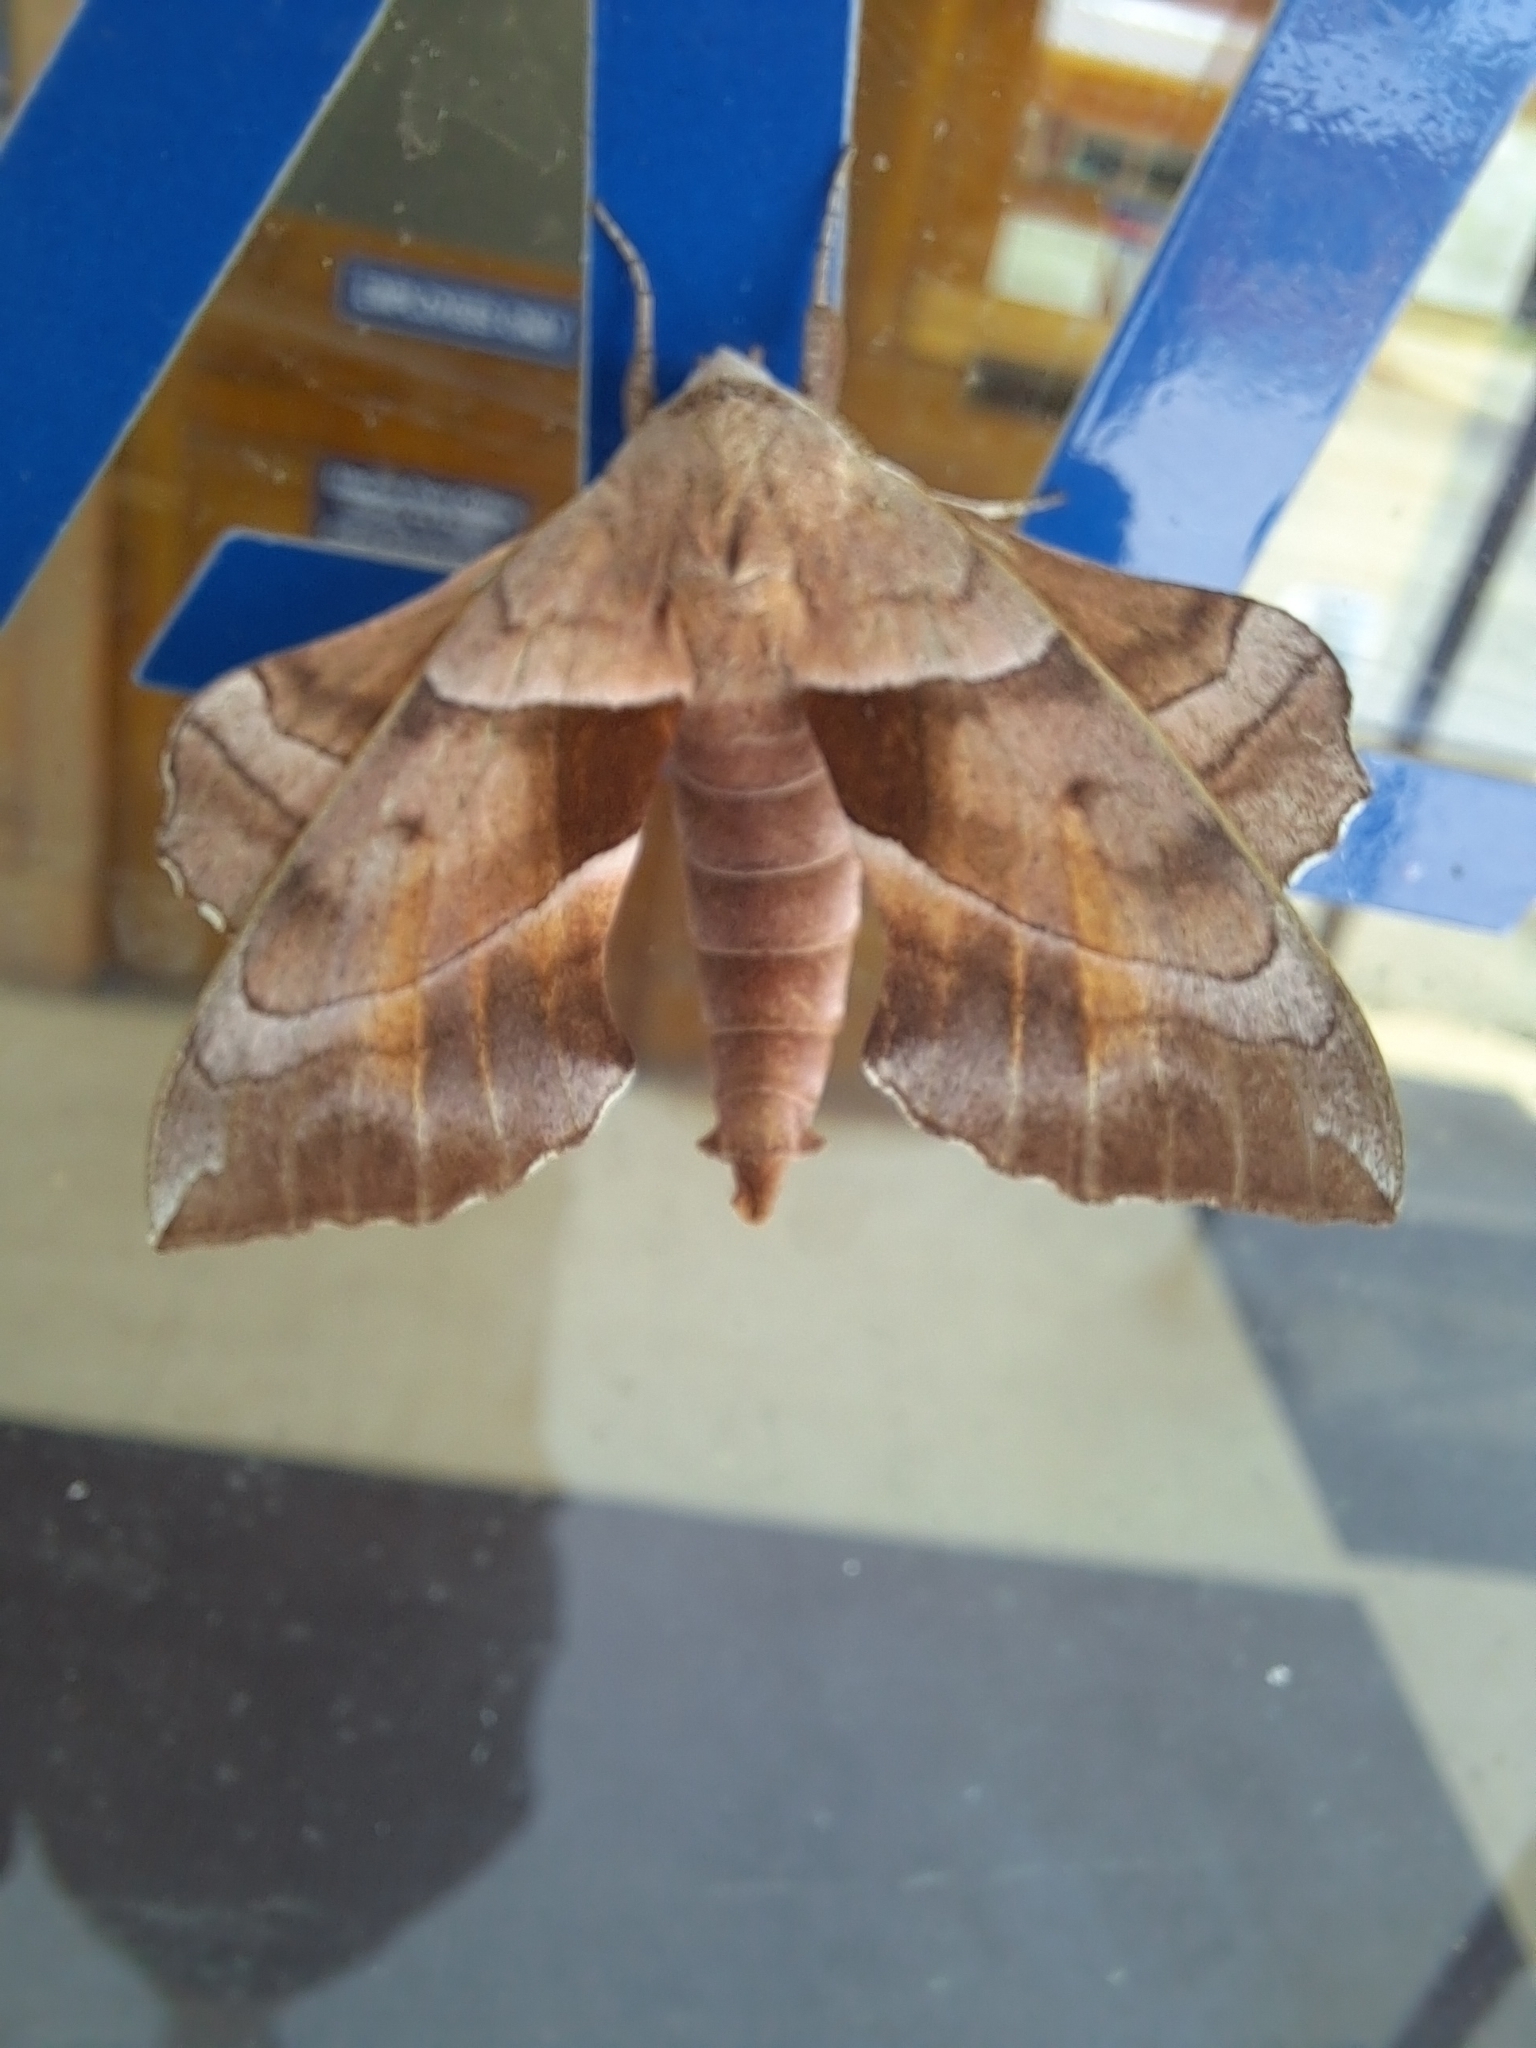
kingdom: Animalia
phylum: Arthropoda
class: Insecta
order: Lepidoptera
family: Sphingidae
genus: Amorpha
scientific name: Amorpha juglandis
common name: Walnut sphinx
